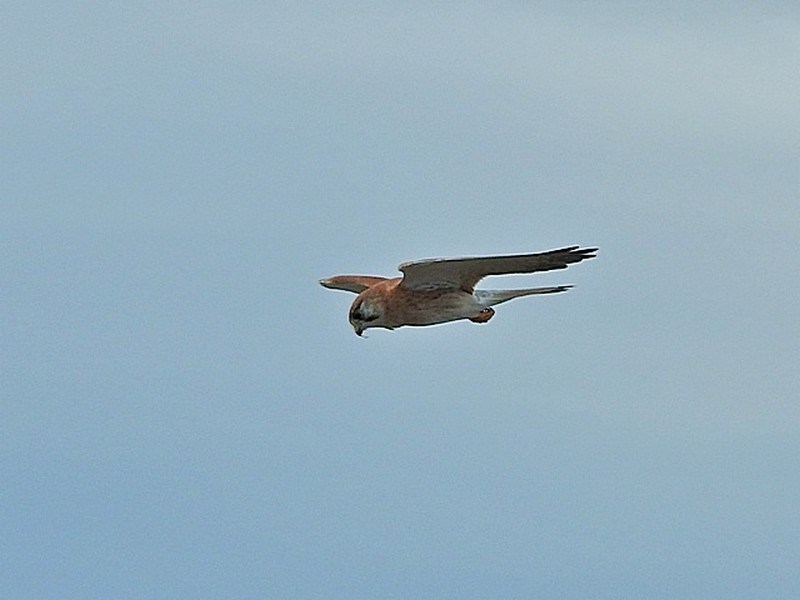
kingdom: Animalia
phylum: Chordata
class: Aves
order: Falconiformes
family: Falconidae
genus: Falco
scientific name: Falco cenchroides
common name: Nankeen kestrel
